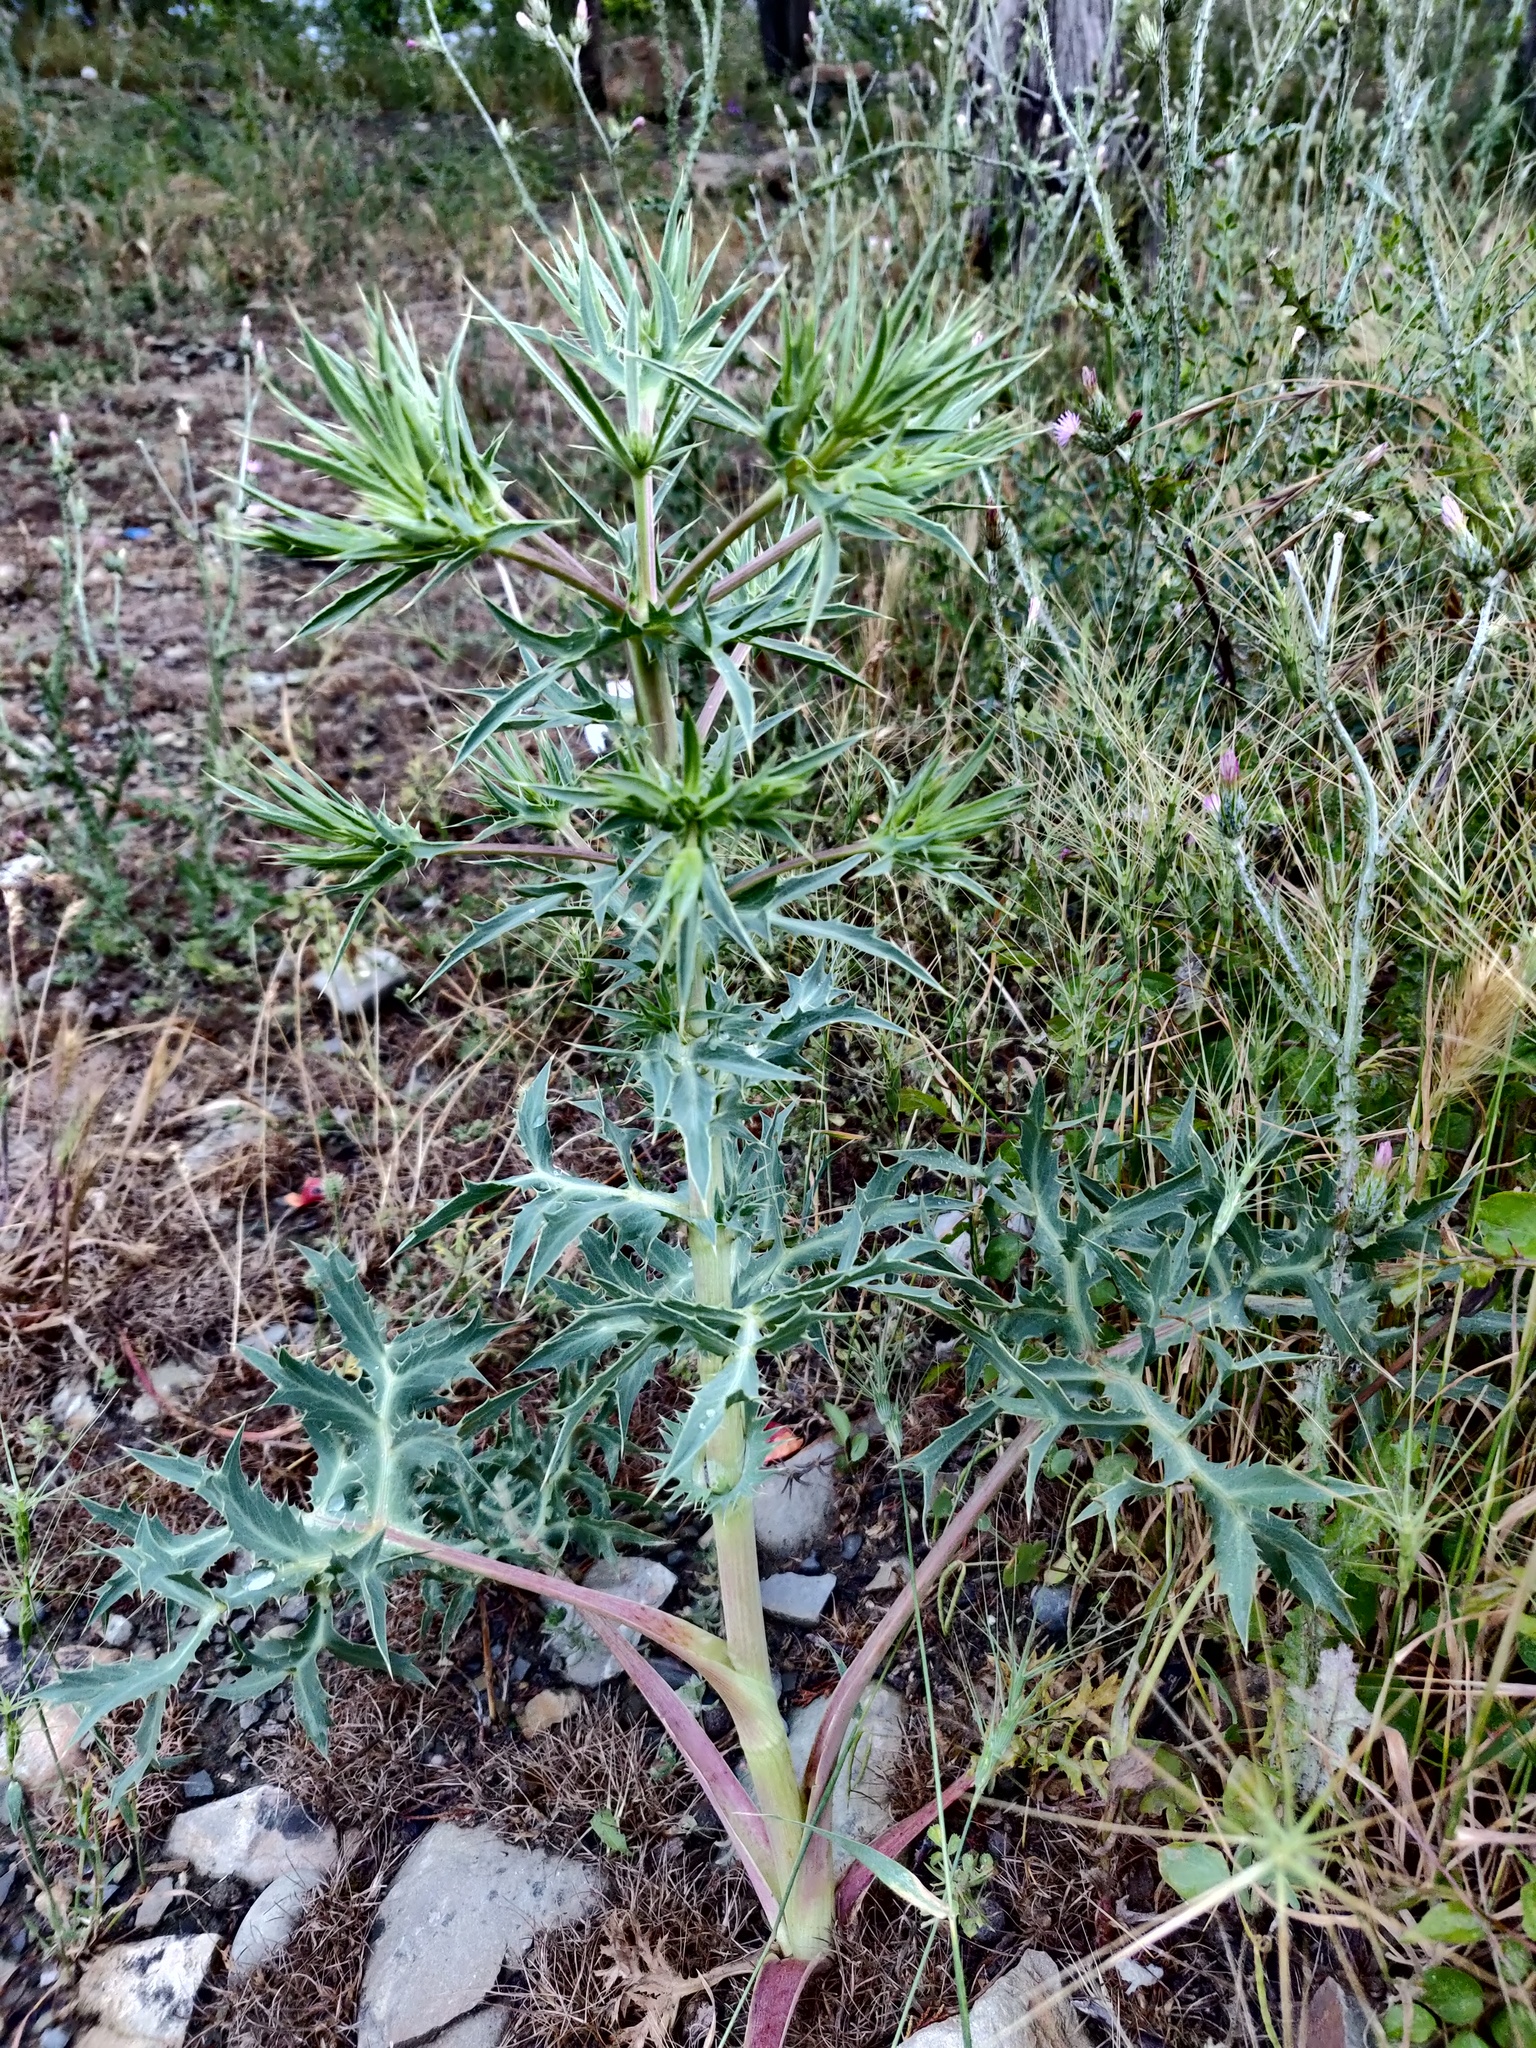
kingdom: Plantae
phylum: Tracheophyta
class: Magnoliopsida
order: Apiales
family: Apiaceae
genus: Eryngium
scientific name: Eryngium campestre
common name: Field eryngo
